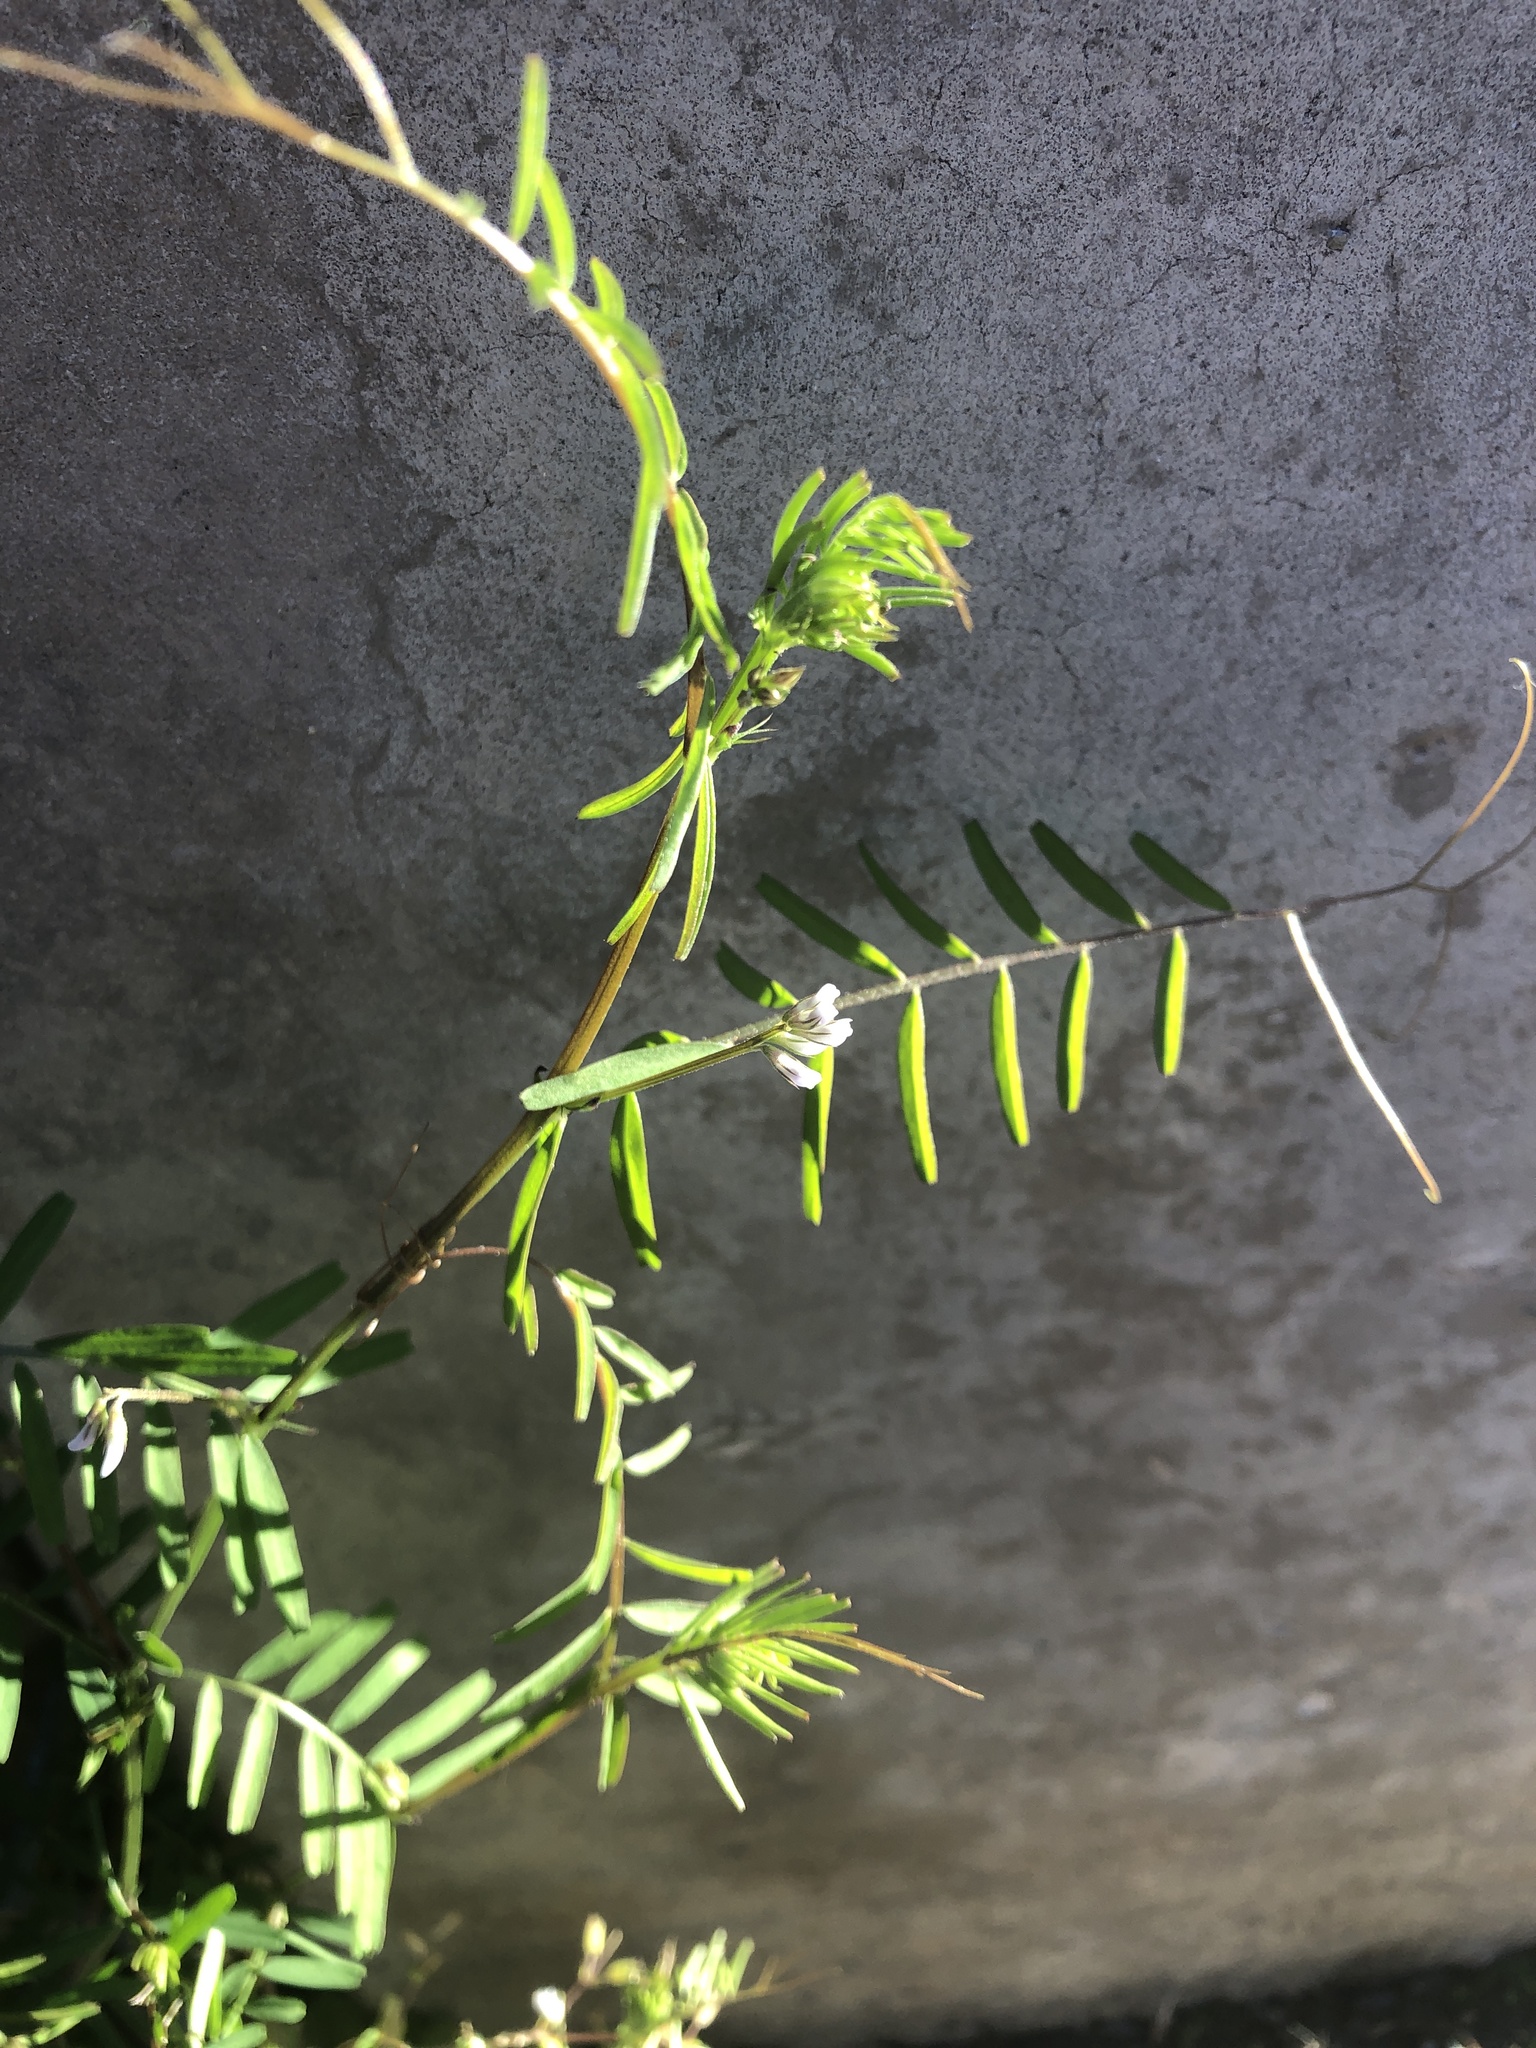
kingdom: Plantae
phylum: Tracheophyta
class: Magnoliopsida
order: Fabales
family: Fabaceae
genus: Vicia
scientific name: Vicia hirsuta
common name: Tiny vetch
